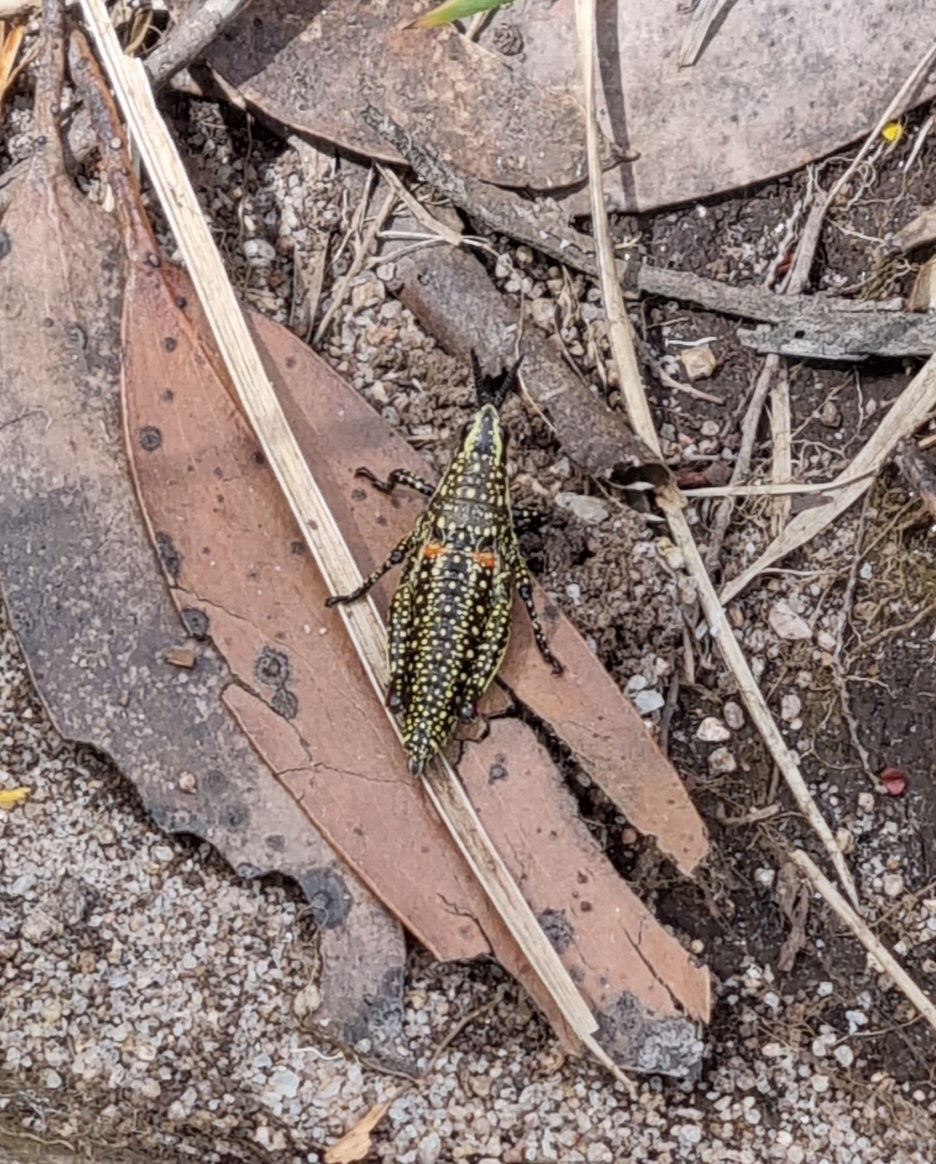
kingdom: Animalia
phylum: Arthropoda
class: Insecta
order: Orthoptera
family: Pyrgomorphidae
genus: Monistria
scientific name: Monistria concinna
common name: Southern pyrgomorph
